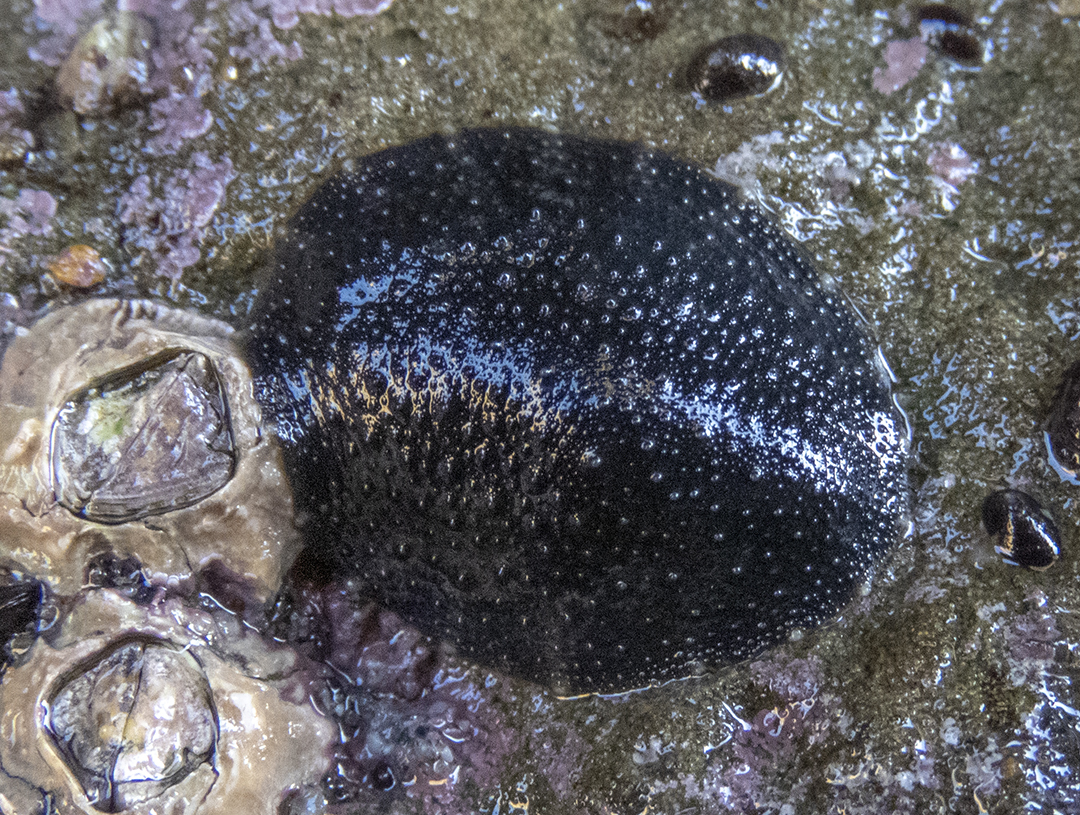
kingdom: Animalia
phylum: Mollusca
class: Gastropoda
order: Systellommatophora
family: Onchidiidae
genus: Onchidella
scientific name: Onchidella nigricans
